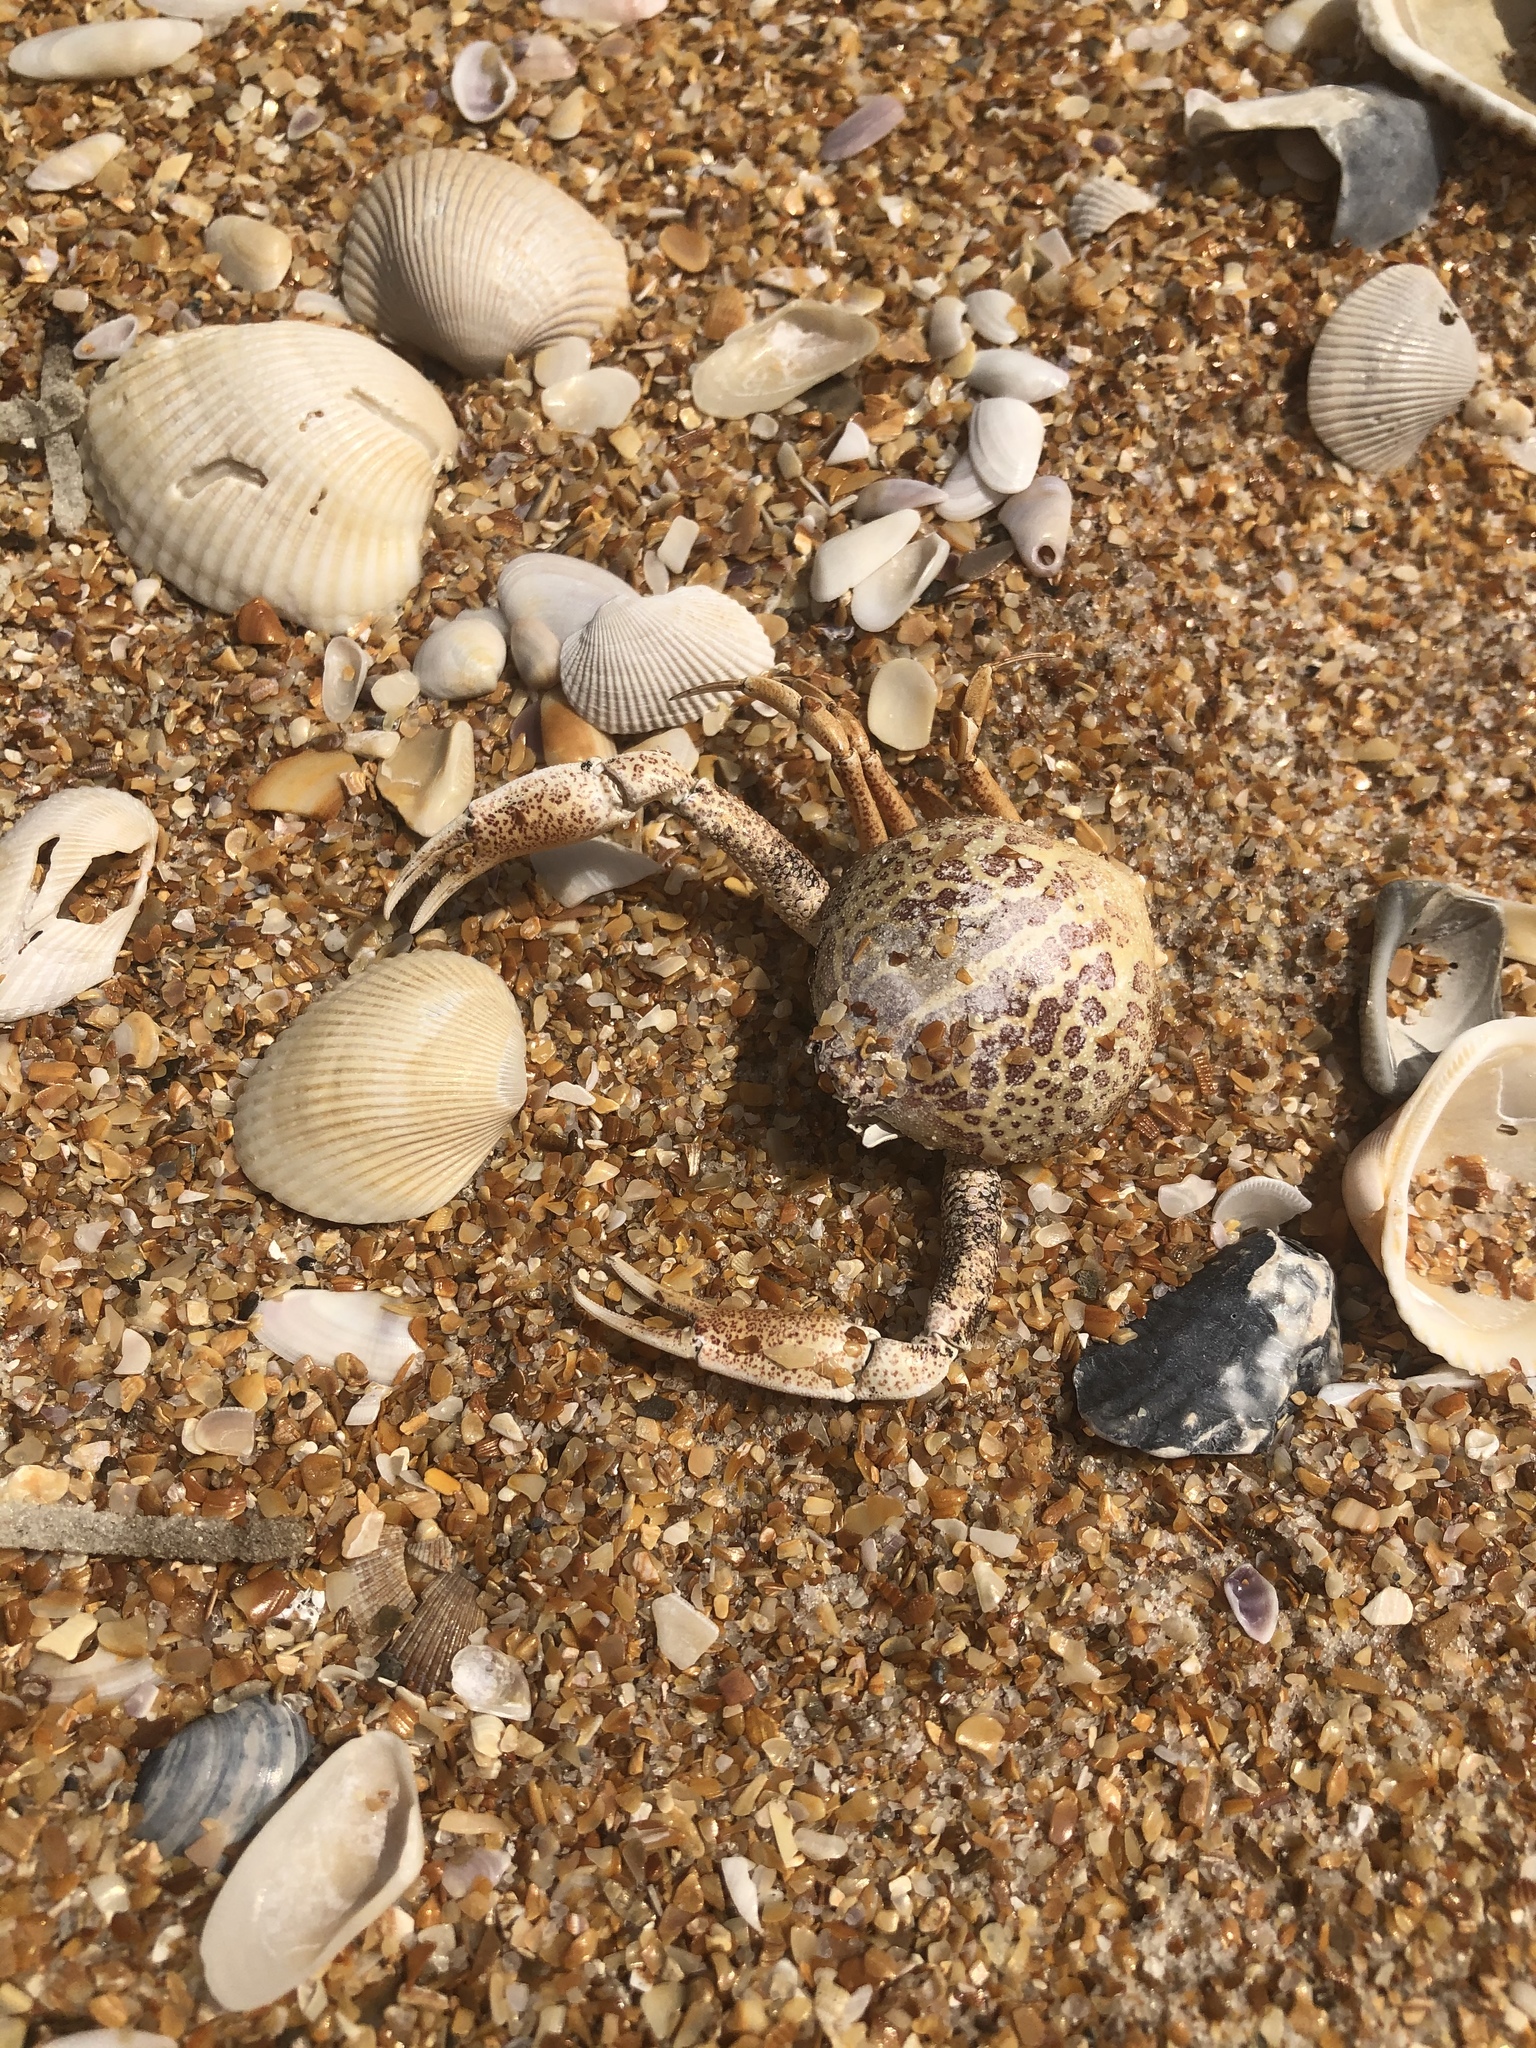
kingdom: Animalia
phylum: Arthropoda
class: Malacostraca
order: Decapoda
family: Leucosiidae
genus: Persephona
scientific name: Persephona aquilonaris
